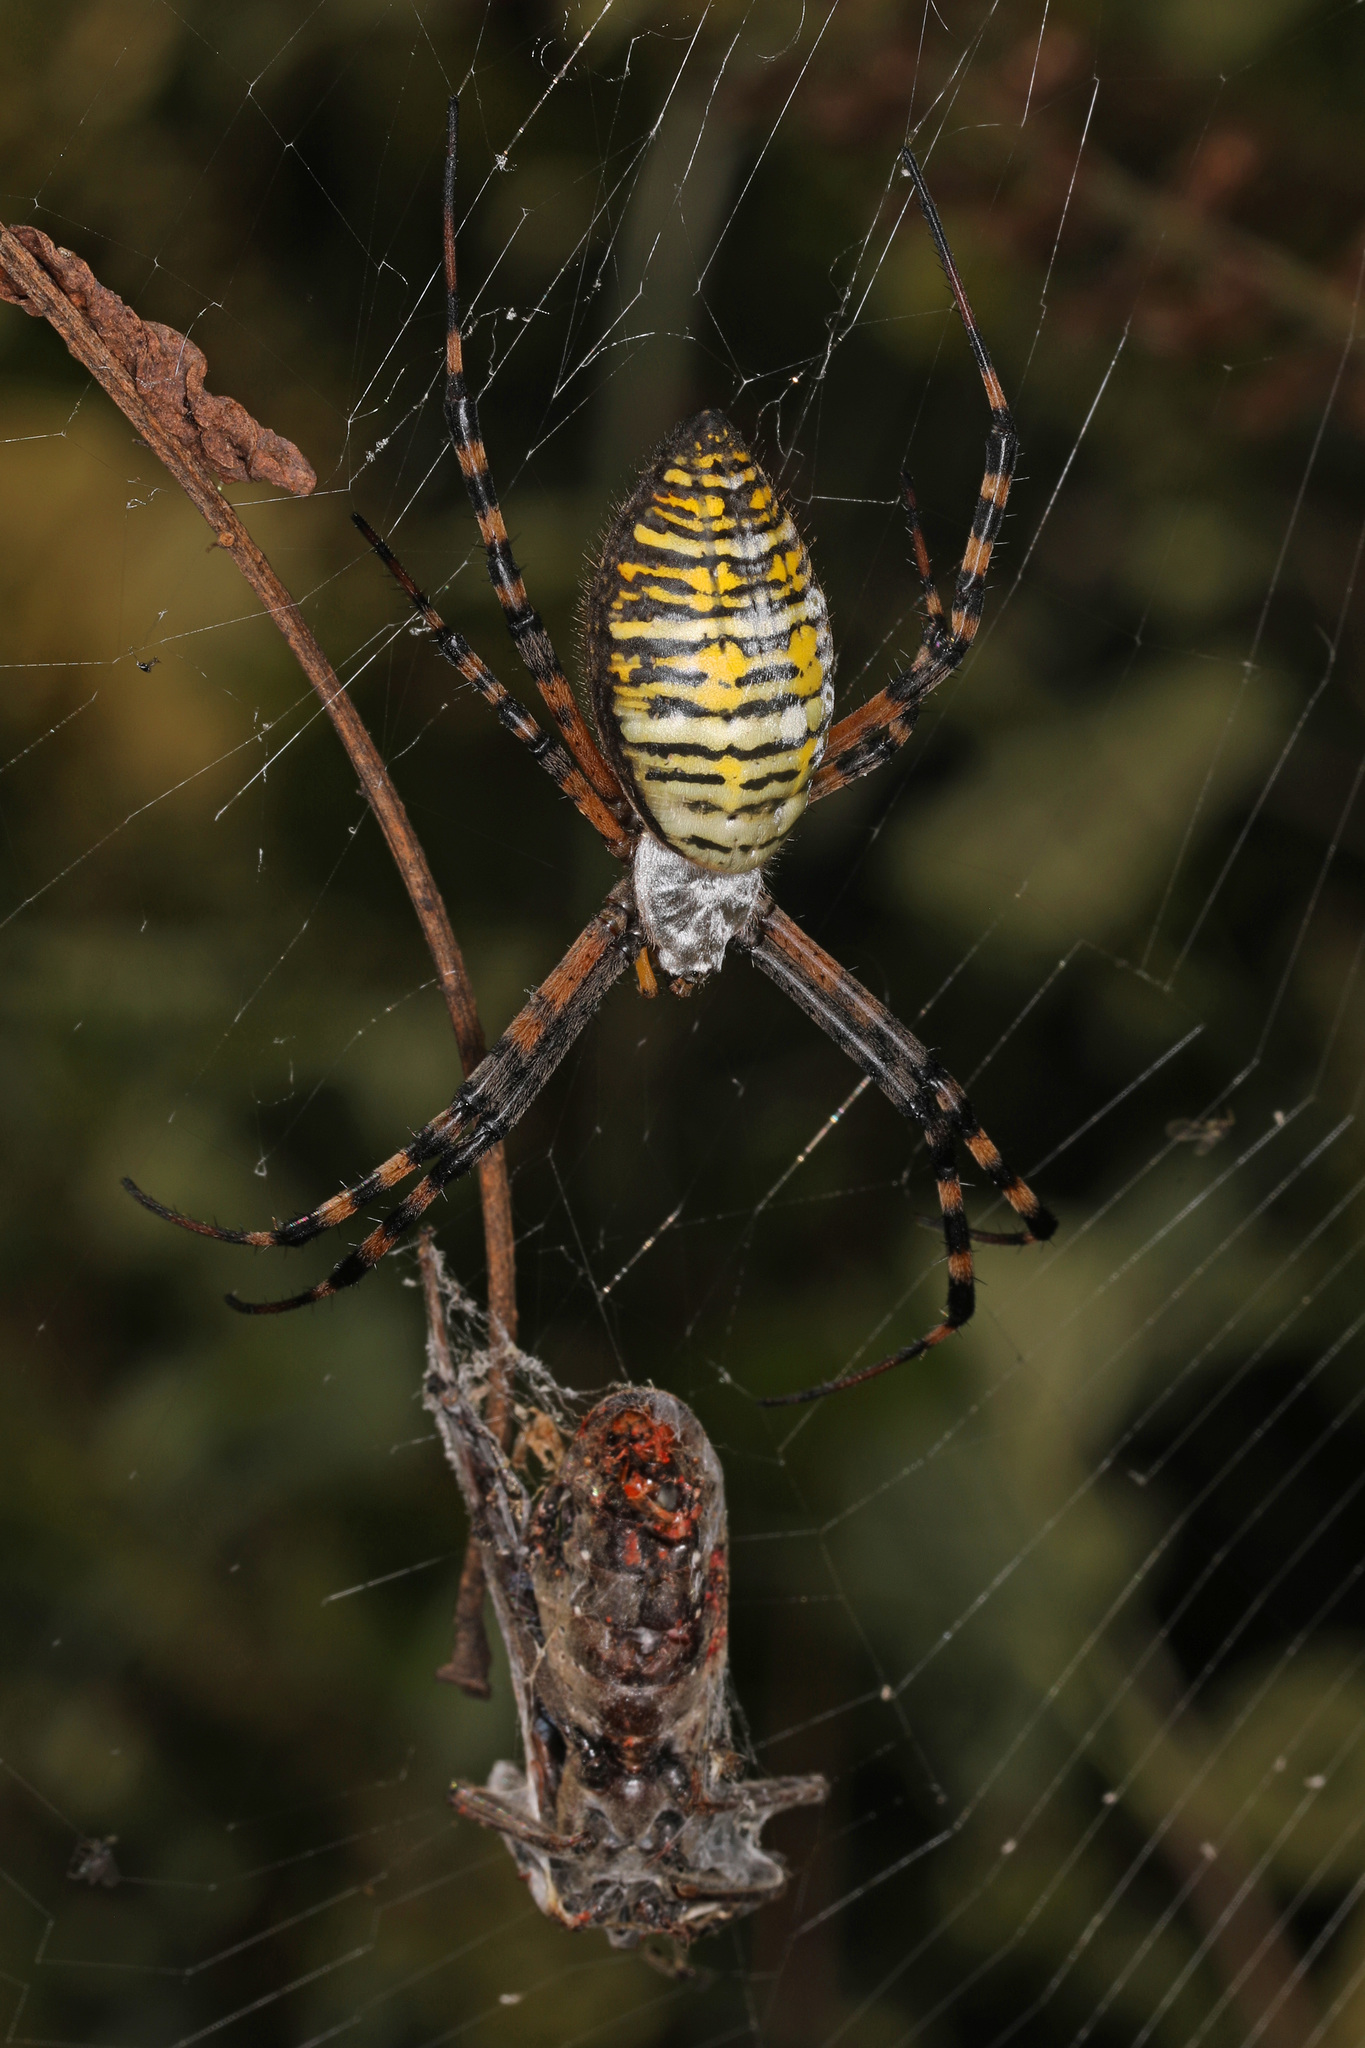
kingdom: Animalia
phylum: Arthropoda
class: Arachnida
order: Araneae
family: Araneidae
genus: Argiope
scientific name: Argiope trifasciata
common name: Banded garden spider
